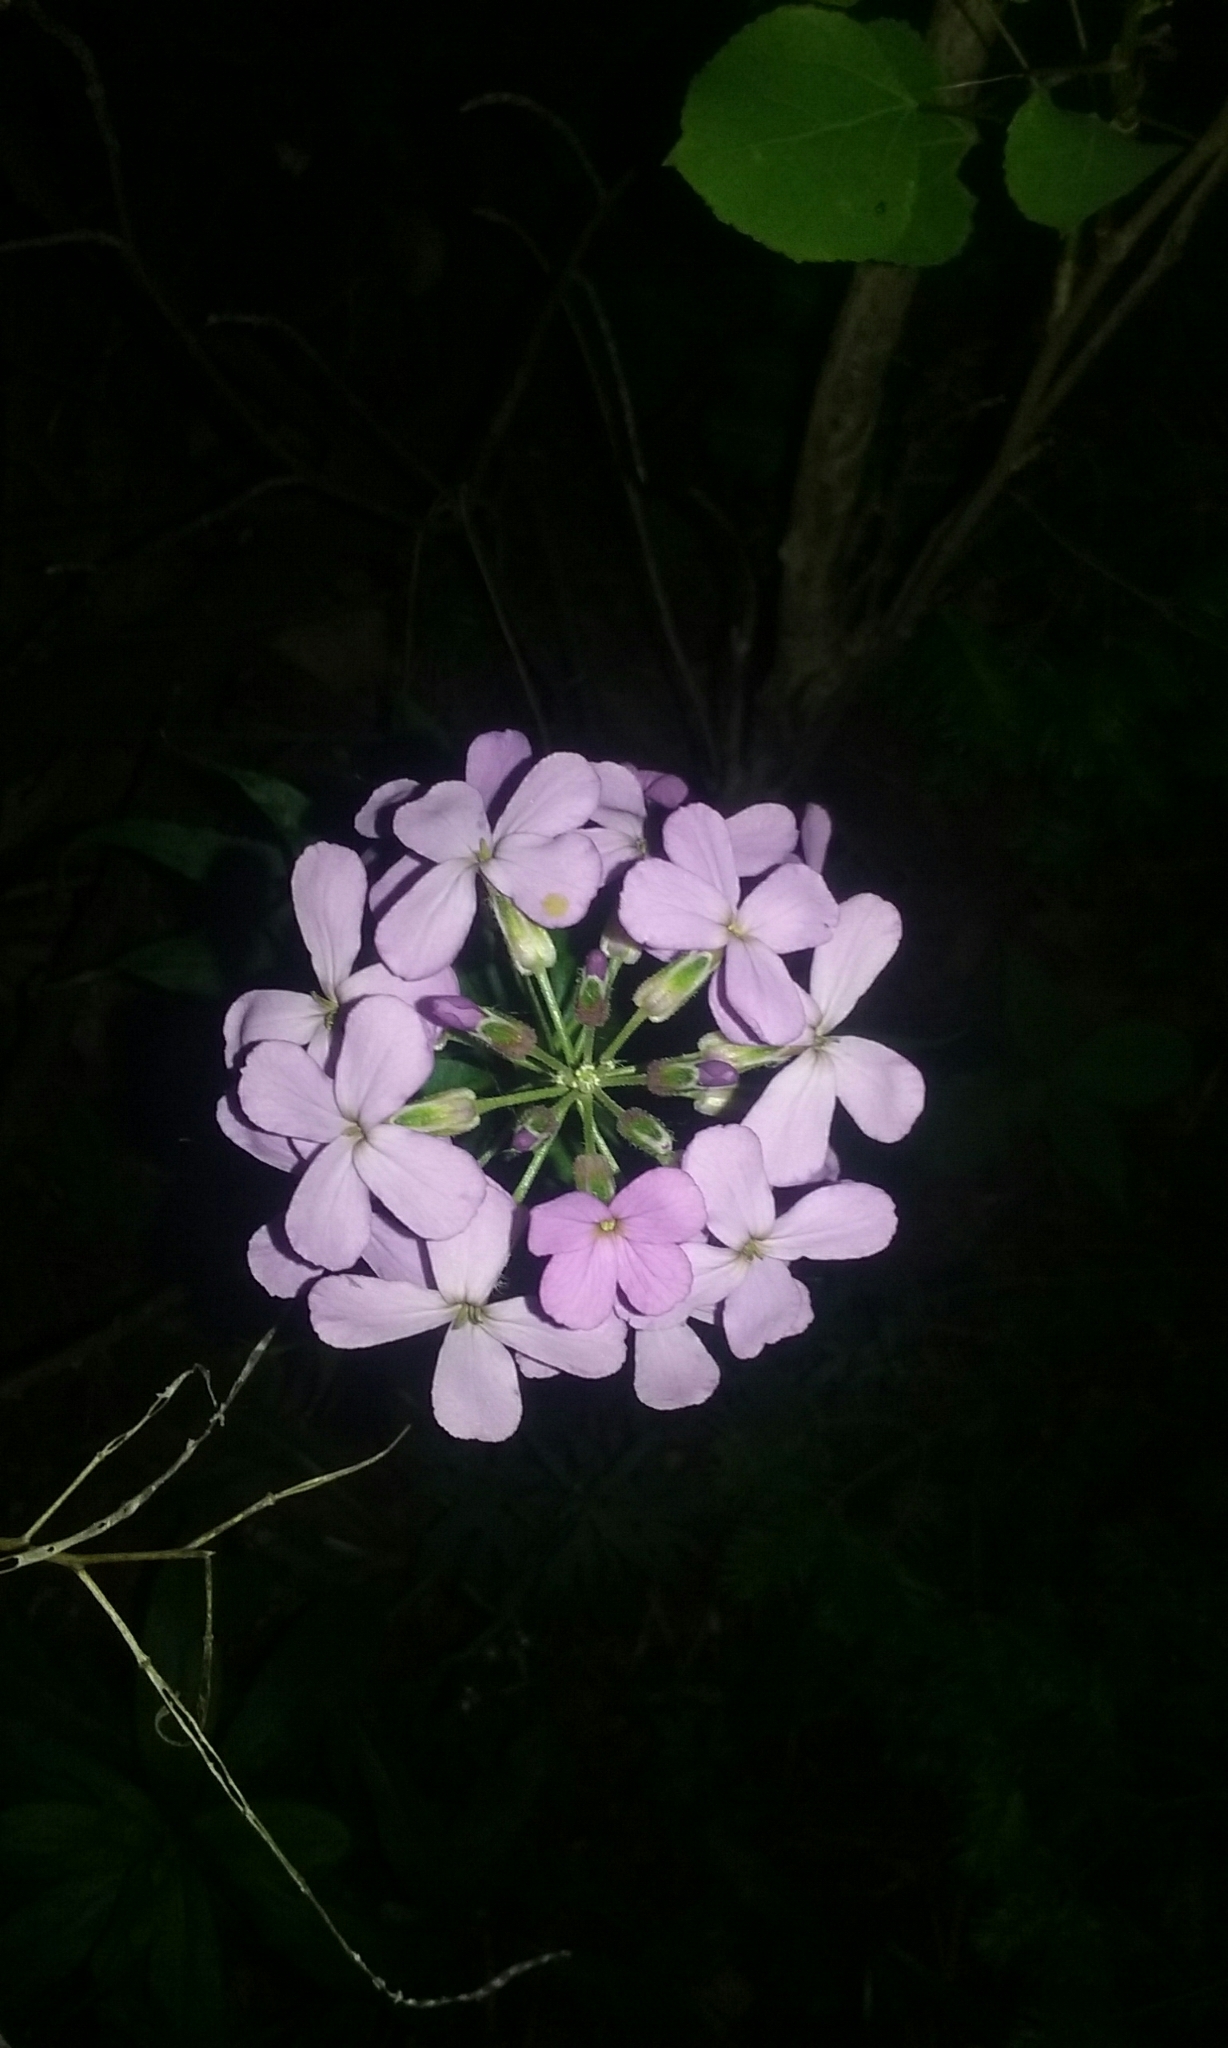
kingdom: Plantae
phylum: Tracheophyta
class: Magnoliopsida
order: Brassicales
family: Brassicaceae
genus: Hesperis
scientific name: Hesperis matronalis
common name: Dame's-violet
